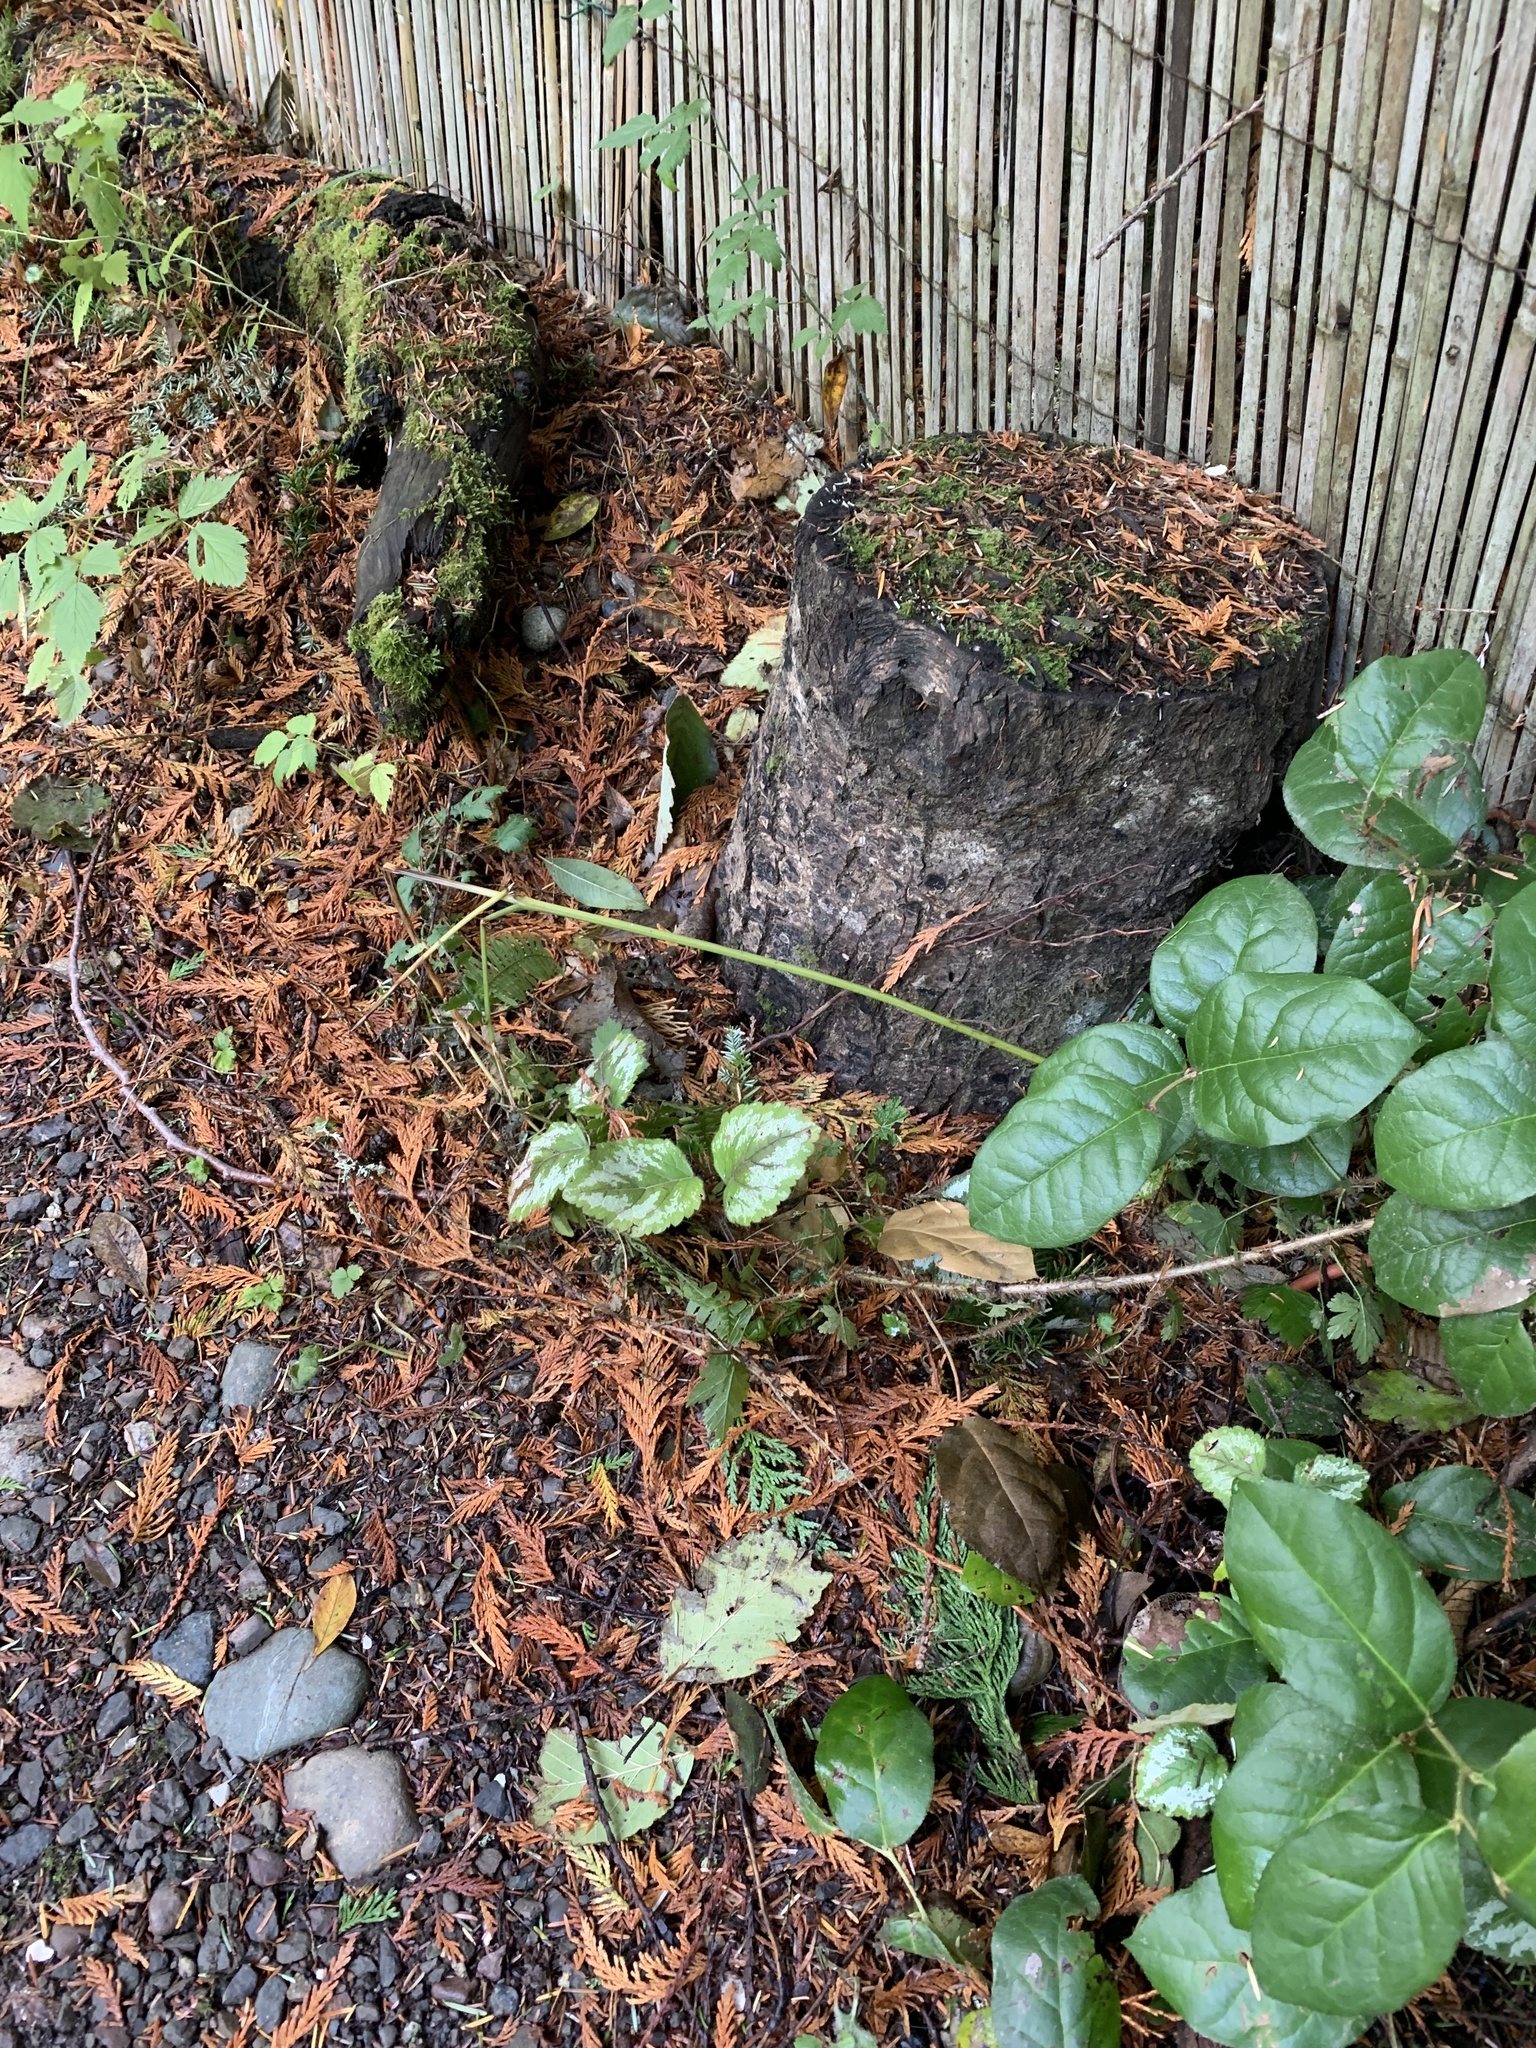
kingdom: Plantae
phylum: Tracheophyta
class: Magnoliopsida
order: Lamiales
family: Lamiaceae
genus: Lamium
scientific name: Lamium galeobdolon
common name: Yellow archangel
